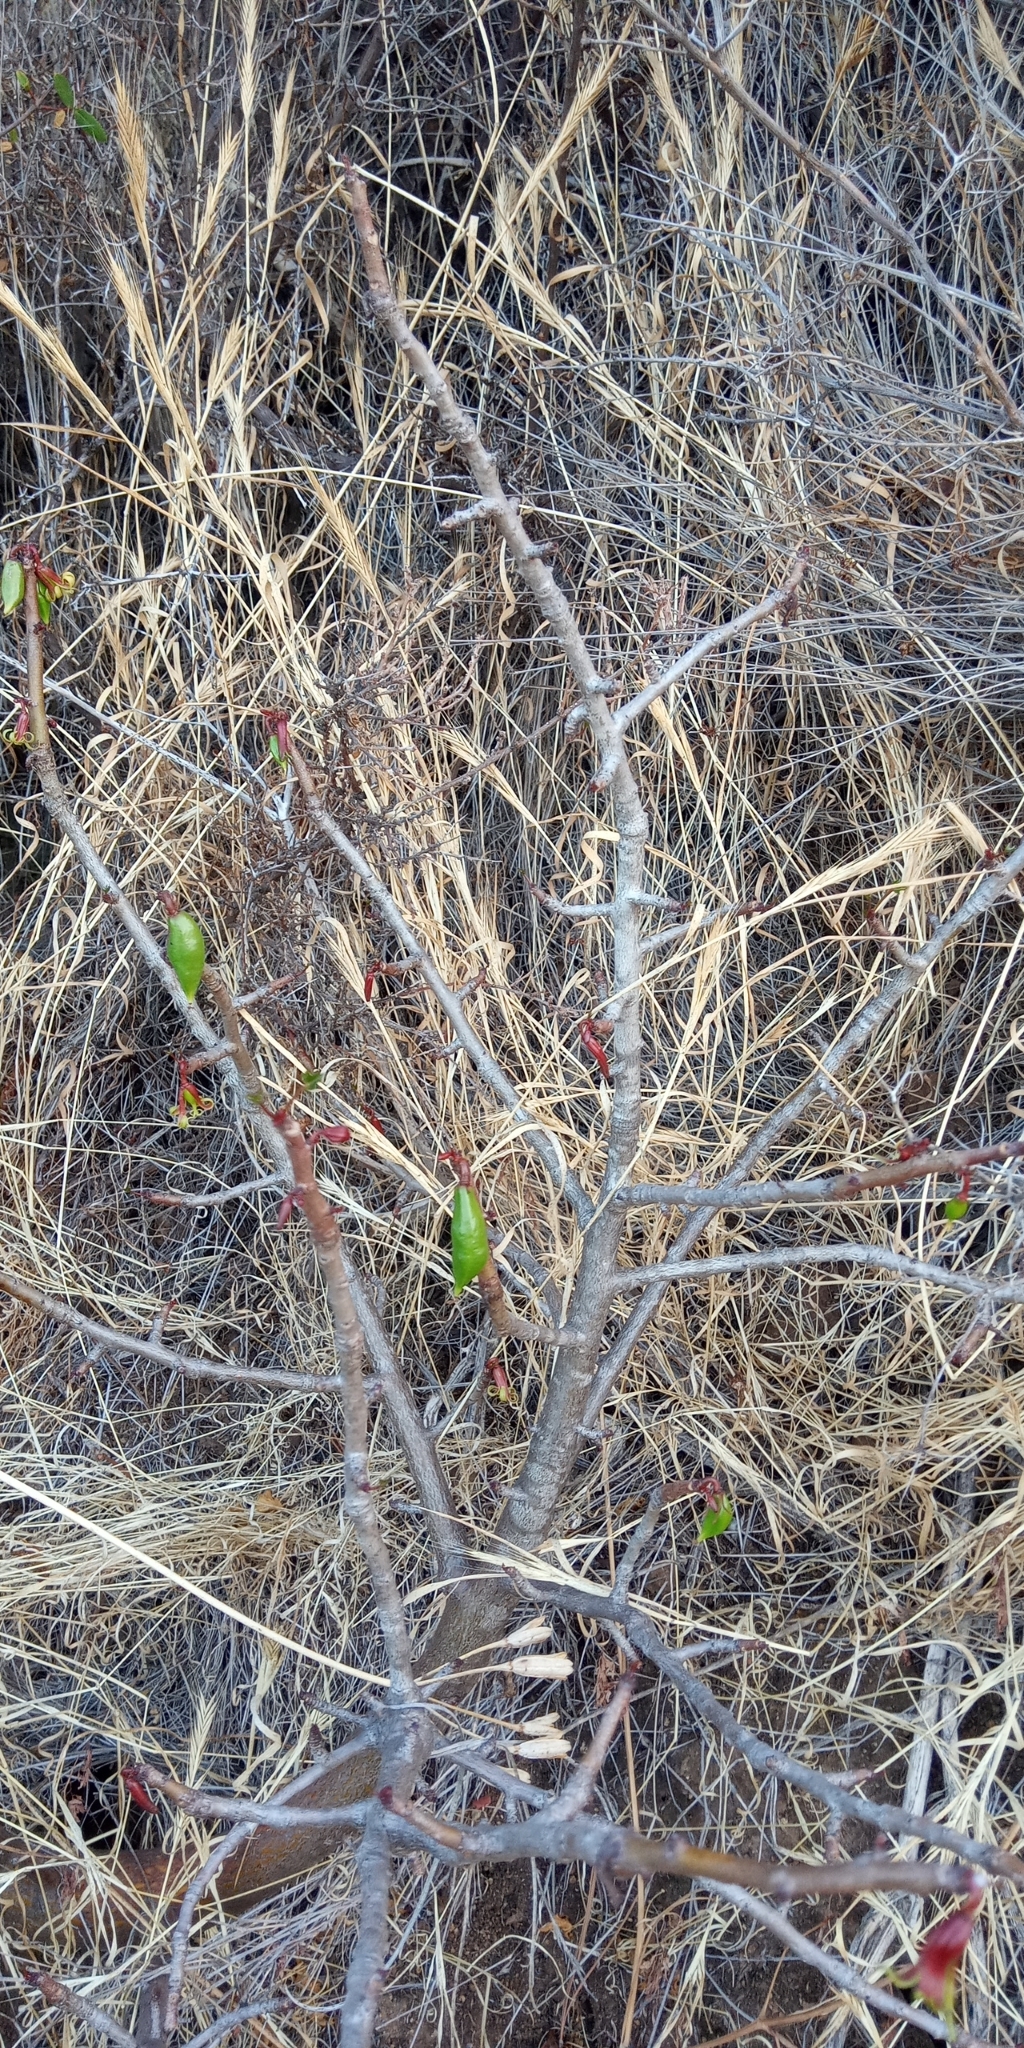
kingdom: Plantae
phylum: Tracheophyta
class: Magnoliopsida
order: Brassicales
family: Caricaceae
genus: Vasconcellea
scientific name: Vasconcellea chilensis
